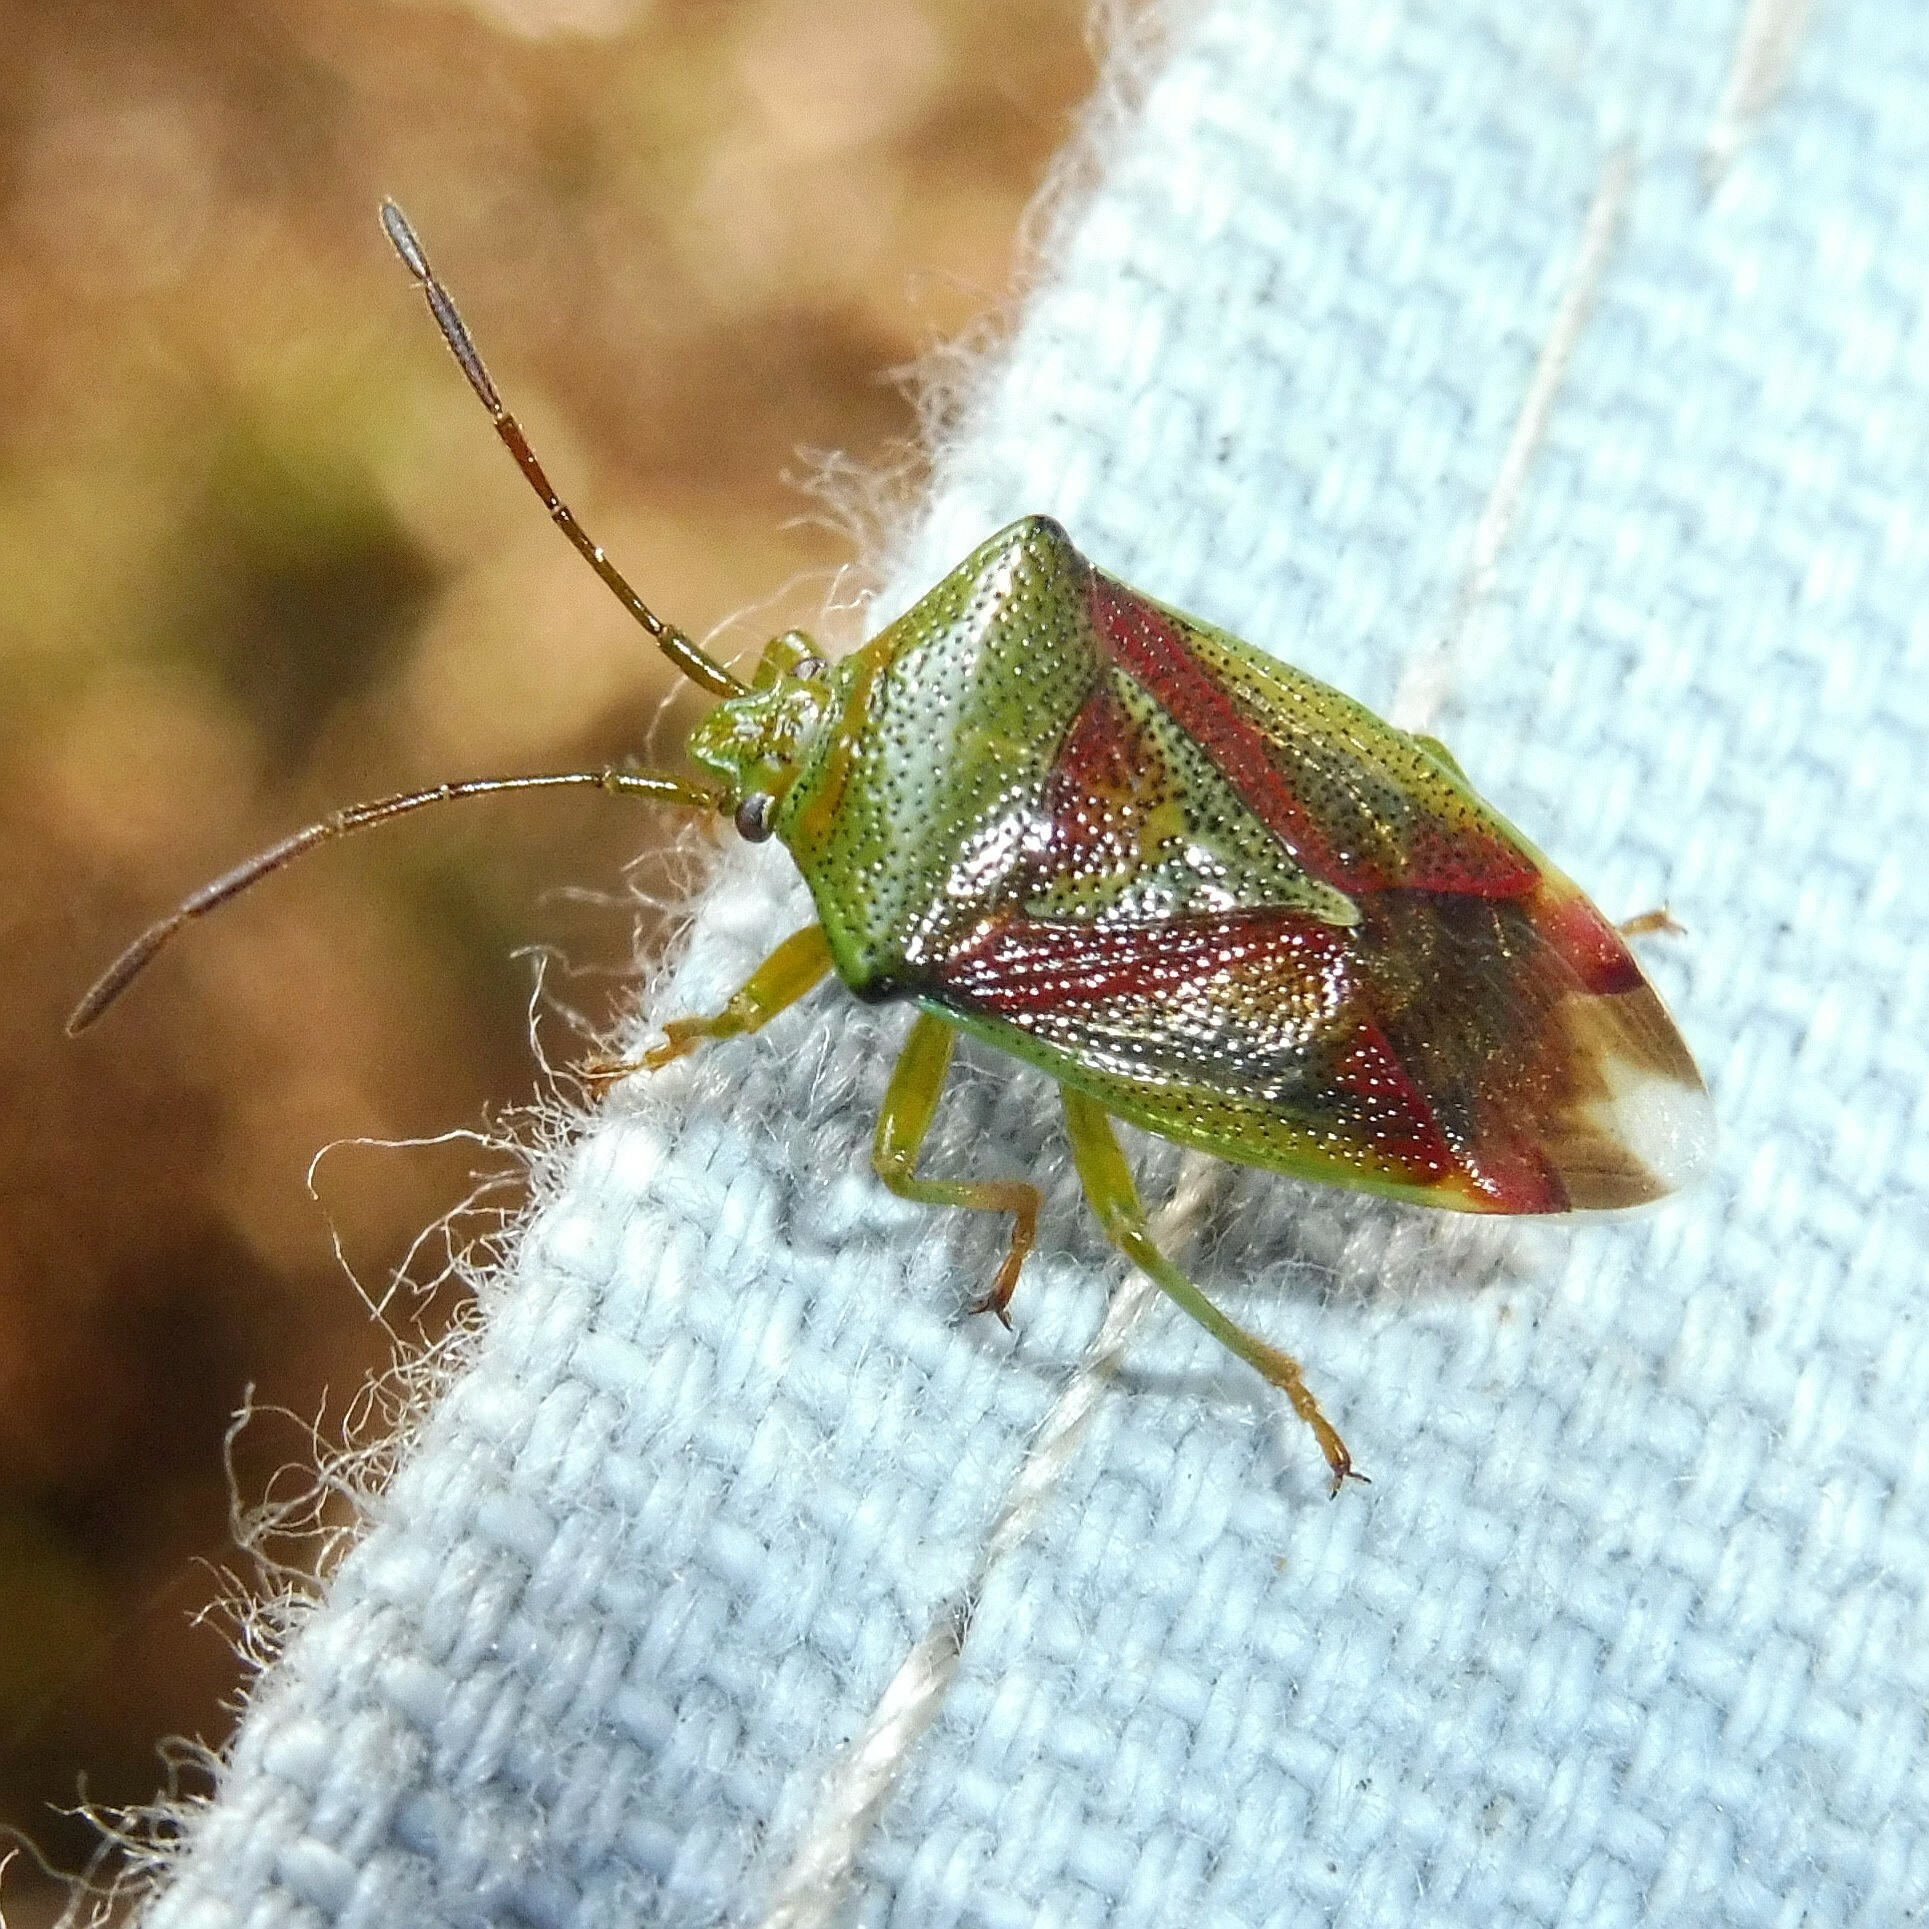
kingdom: Animalia
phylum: Arthropoda
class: Insecta
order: Hemiptera
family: Acanthosomatidae
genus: Elasmostethus
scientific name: Elasmostethus interstinctus
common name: Birch shieldbug
